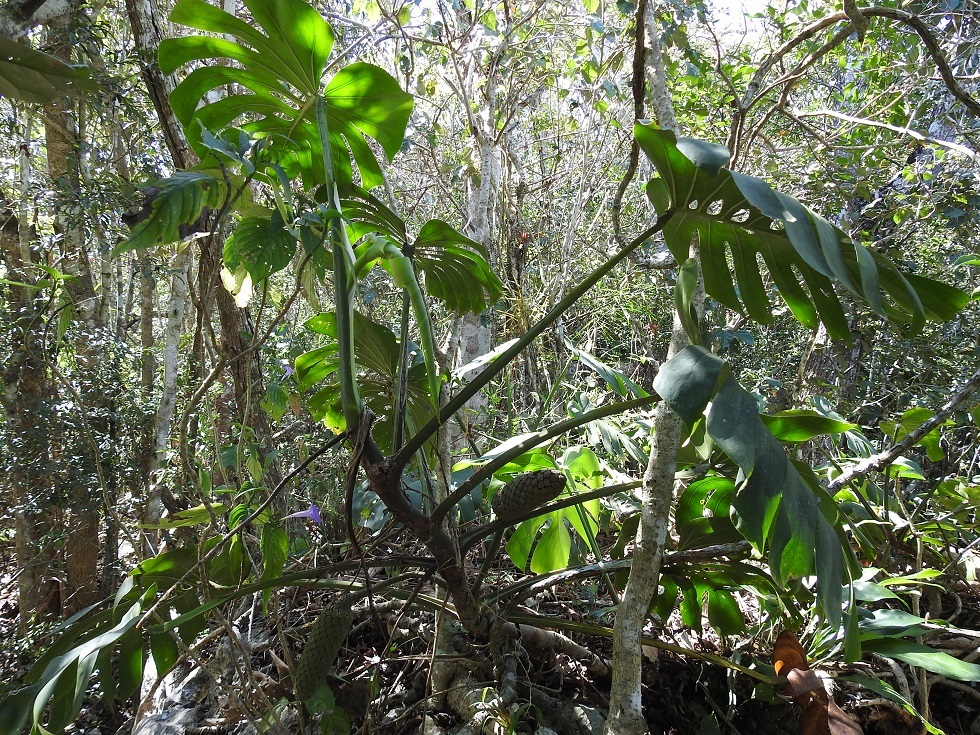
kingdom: Plantae
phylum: Tracheophyta
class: Liliopsida
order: Alismatales
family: Araceae
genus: Monstera
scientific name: Monstera deliciosa
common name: Cut-leaf-philodendron
